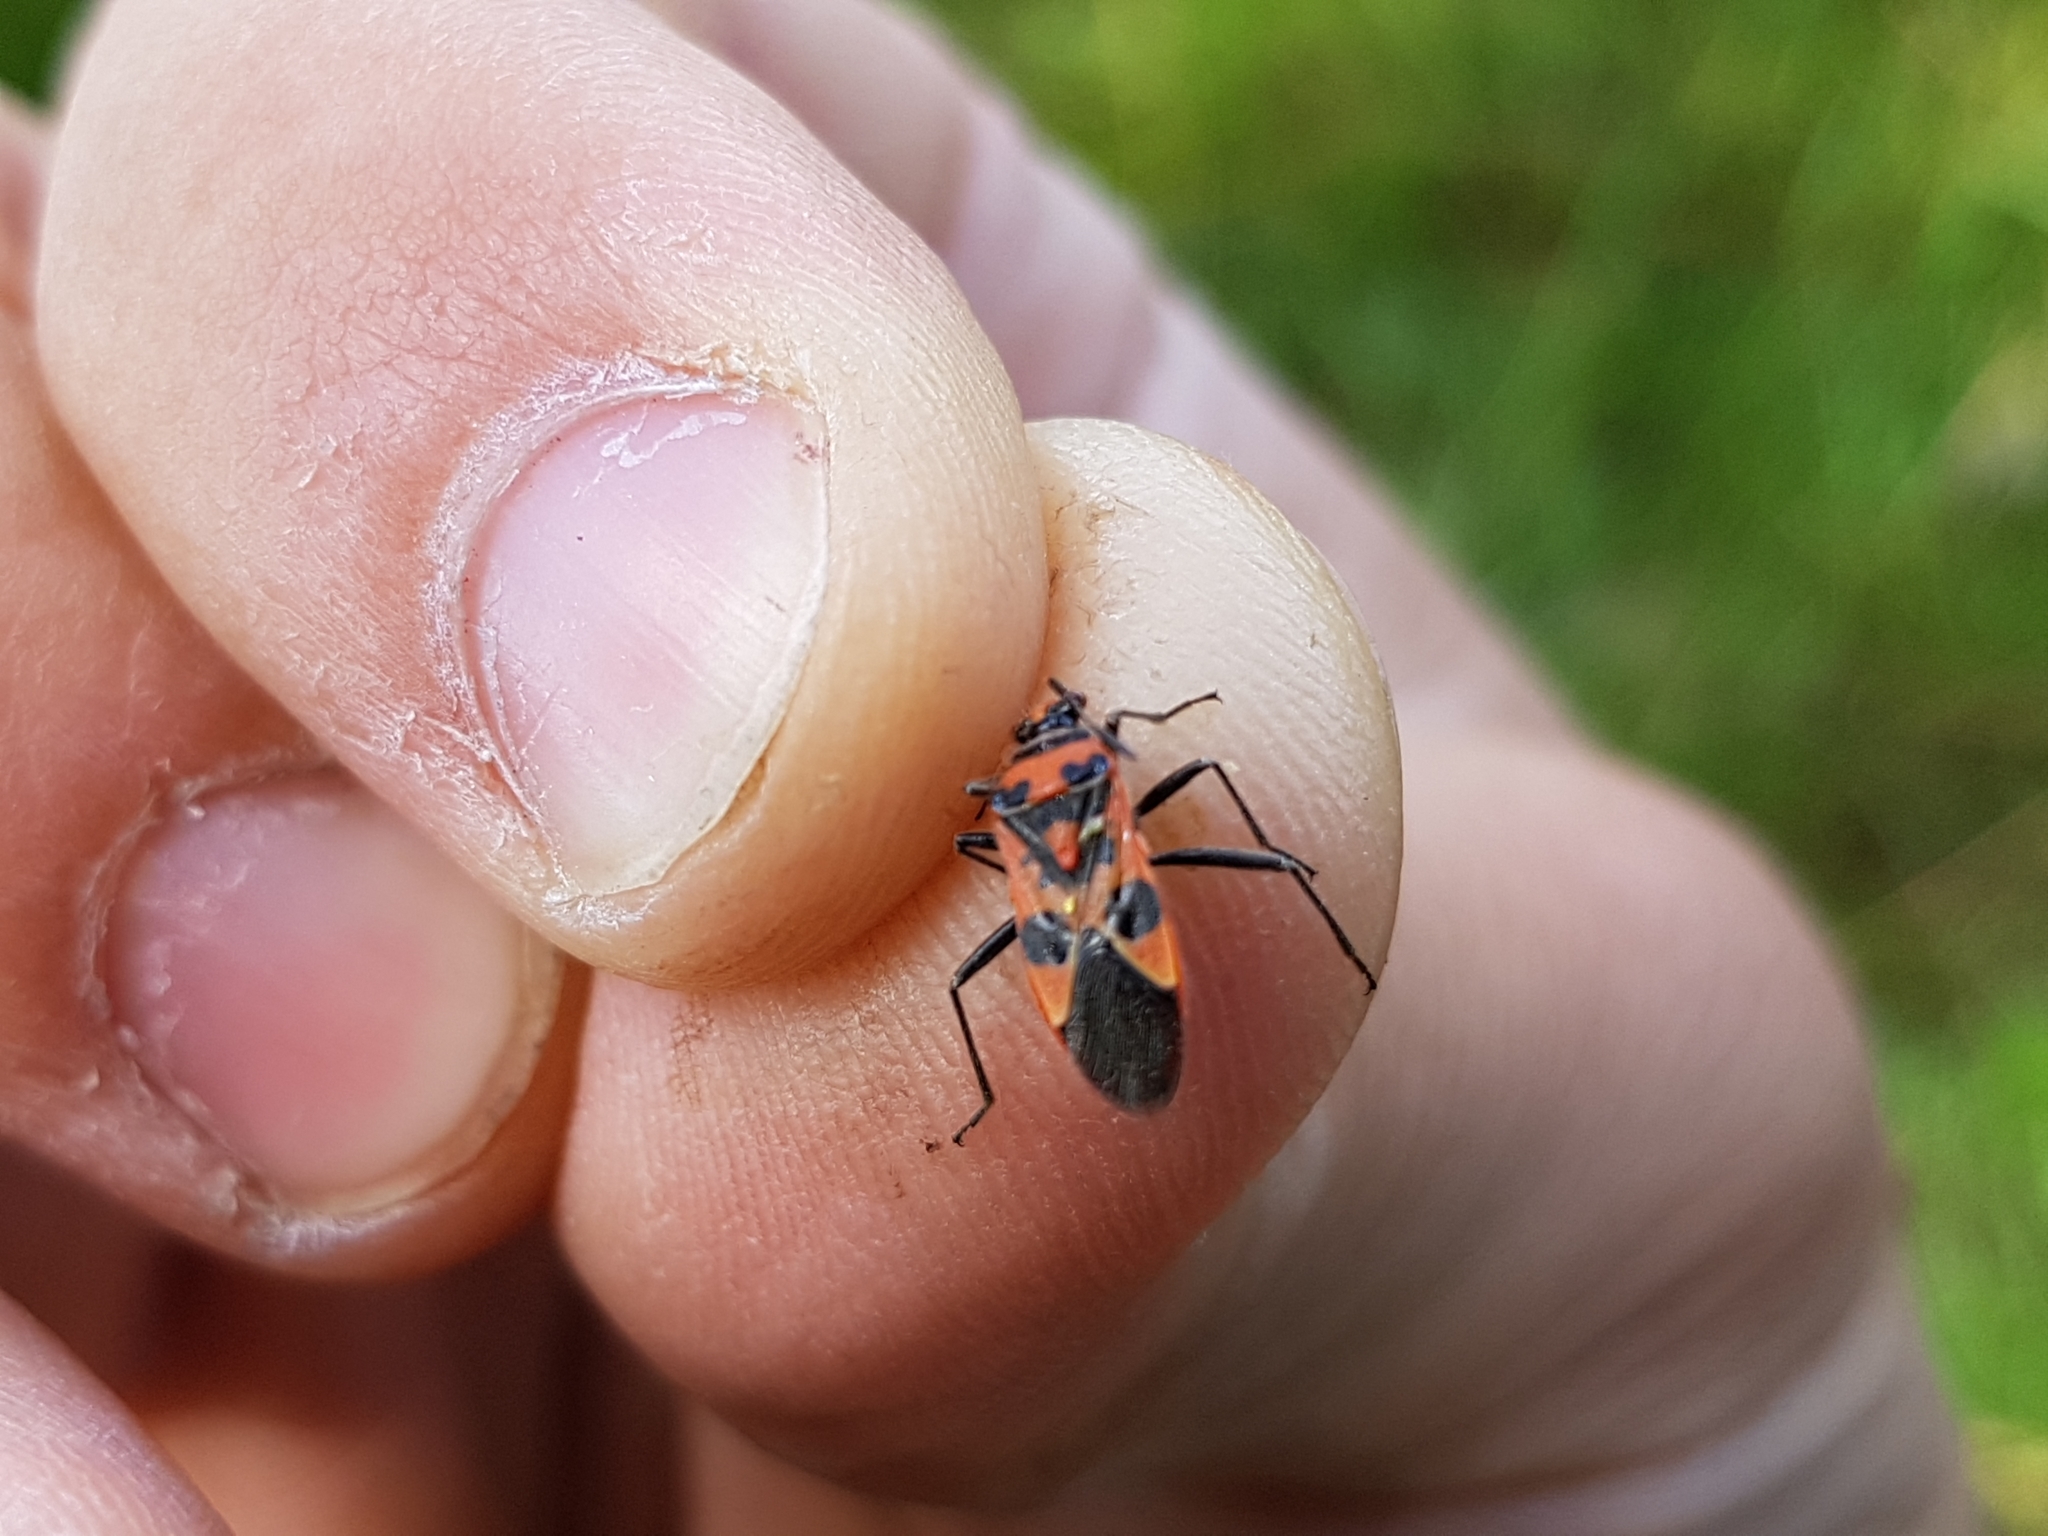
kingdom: Animalia
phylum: Arthropoda
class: Insecta
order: Hemiptera
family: Rhopalidae
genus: Corizus
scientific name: Corizus hyoscyami
